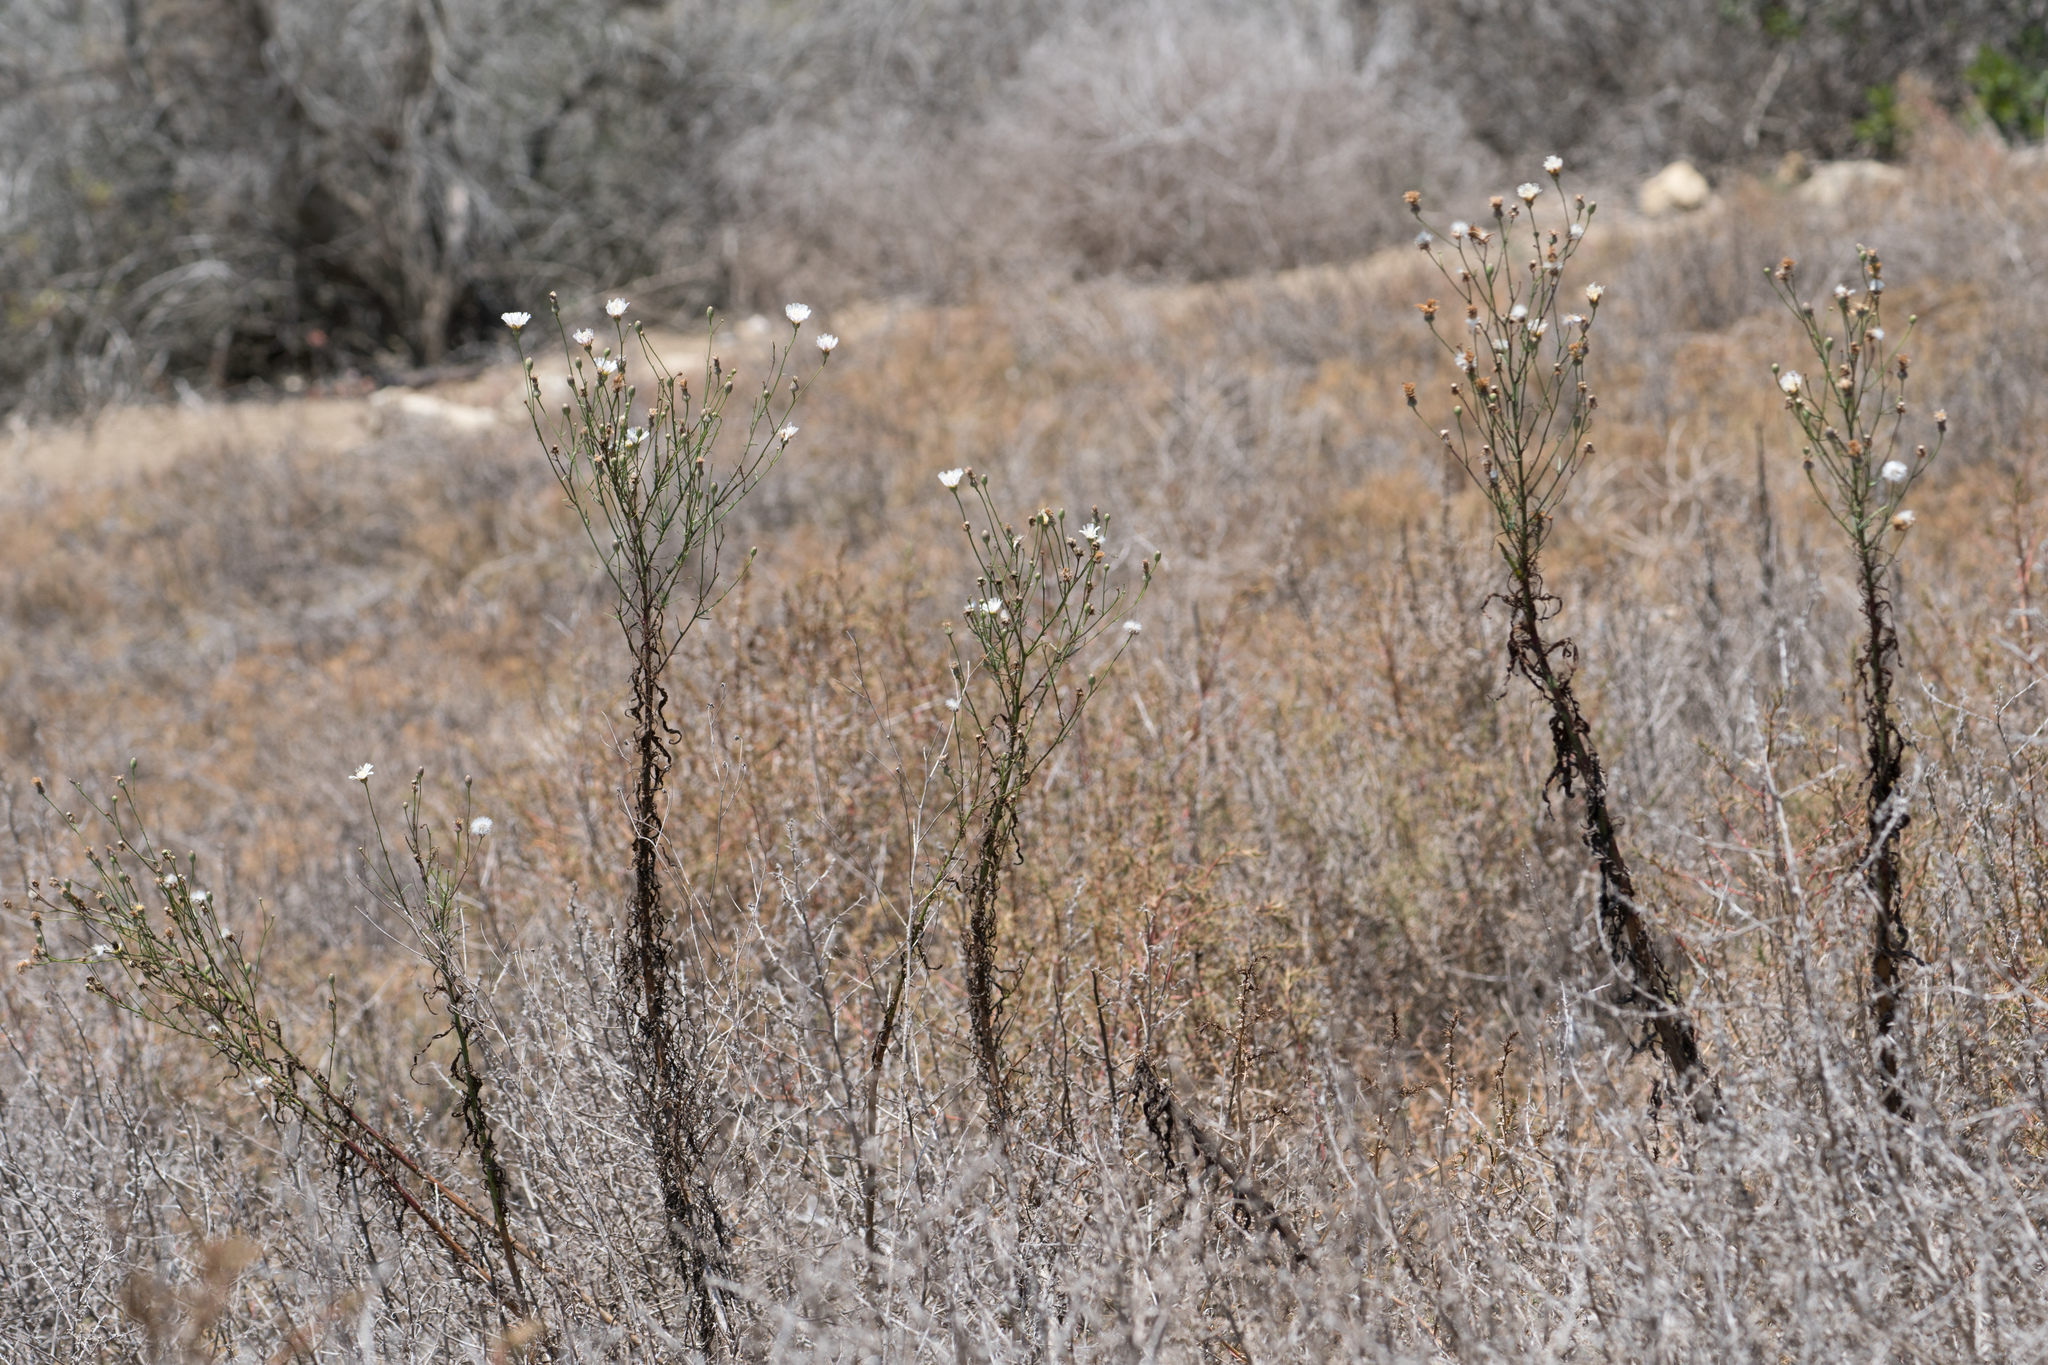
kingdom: Plantae
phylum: Tracheophyta
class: Magnoliopsida
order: Asterales
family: Asteraceae
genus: Malacothrix
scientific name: Malacothrix saxatilis
